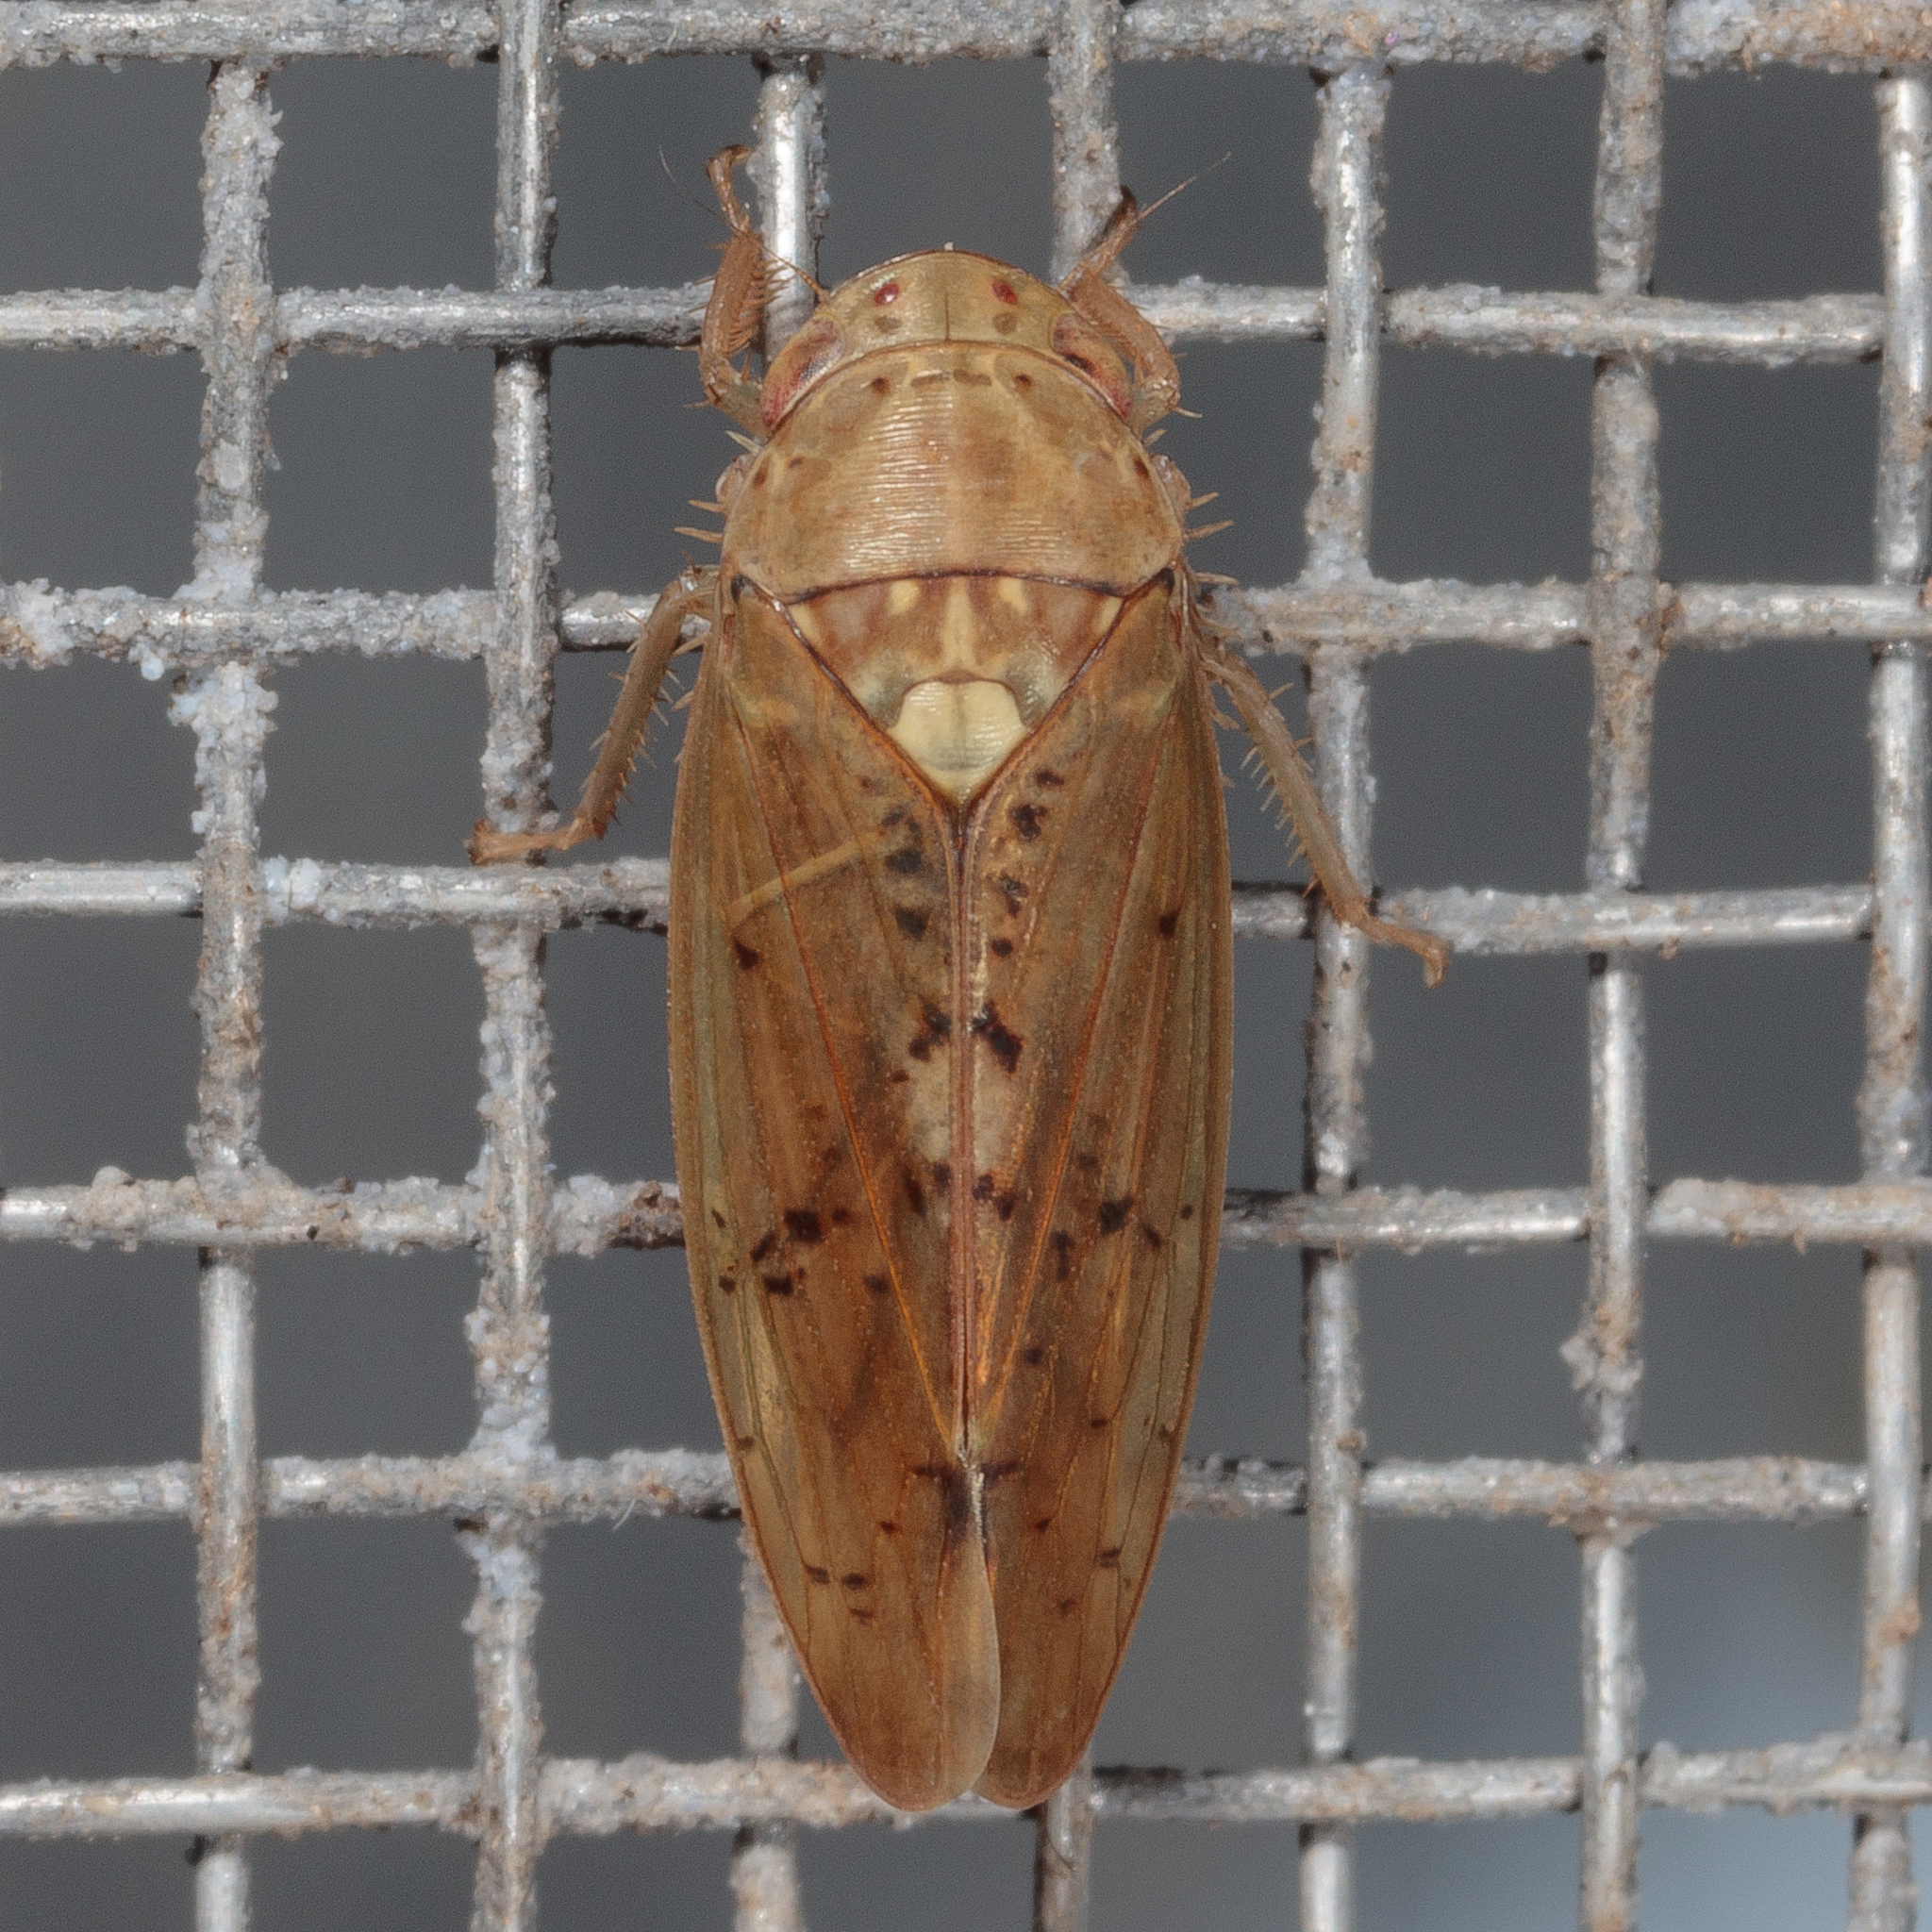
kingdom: Animalia
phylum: Arthropoda
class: Insecta
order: Hemiptera
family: Cicadellidae
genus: Ponana
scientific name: Ponana quadralaba
